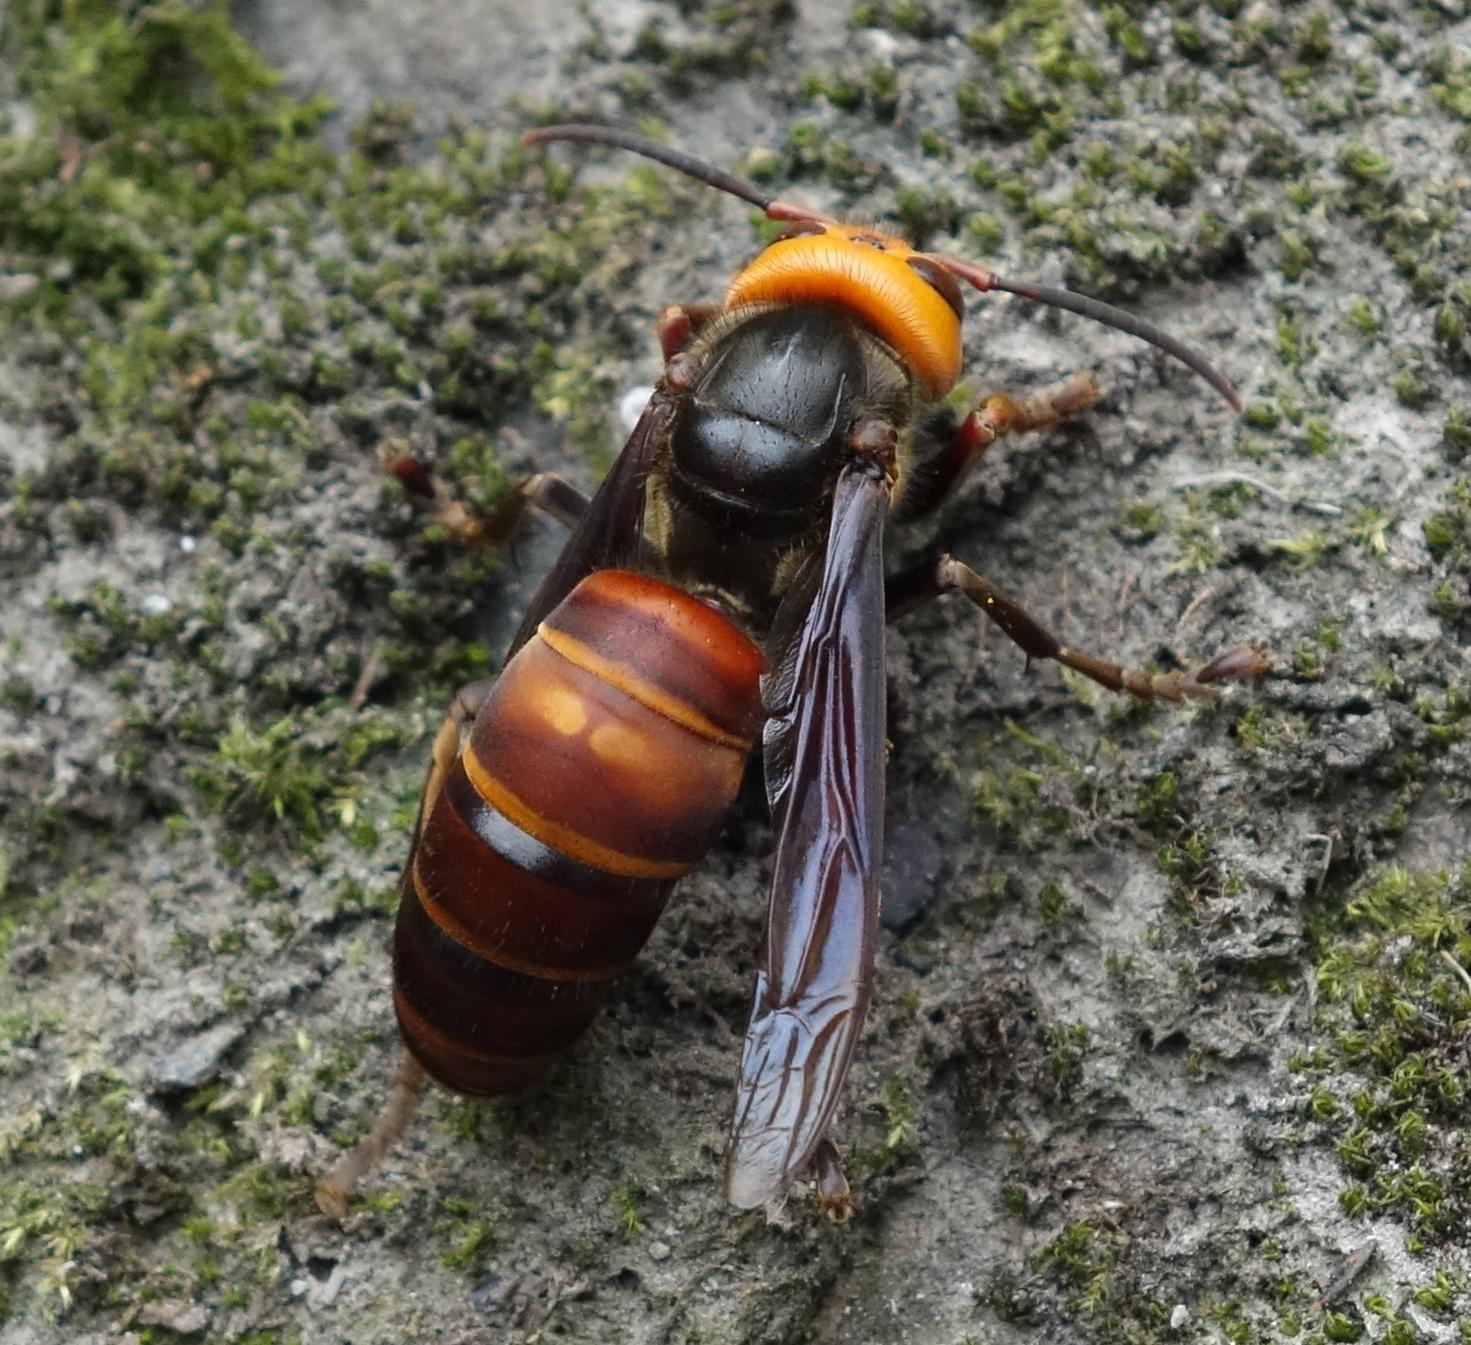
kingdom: Animalia
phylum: Arthropoda
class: Insecta
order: Hymenoptera
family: Vespidae
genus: Vespa
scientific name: Vespa mandarinia
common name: Asian giant hornet
